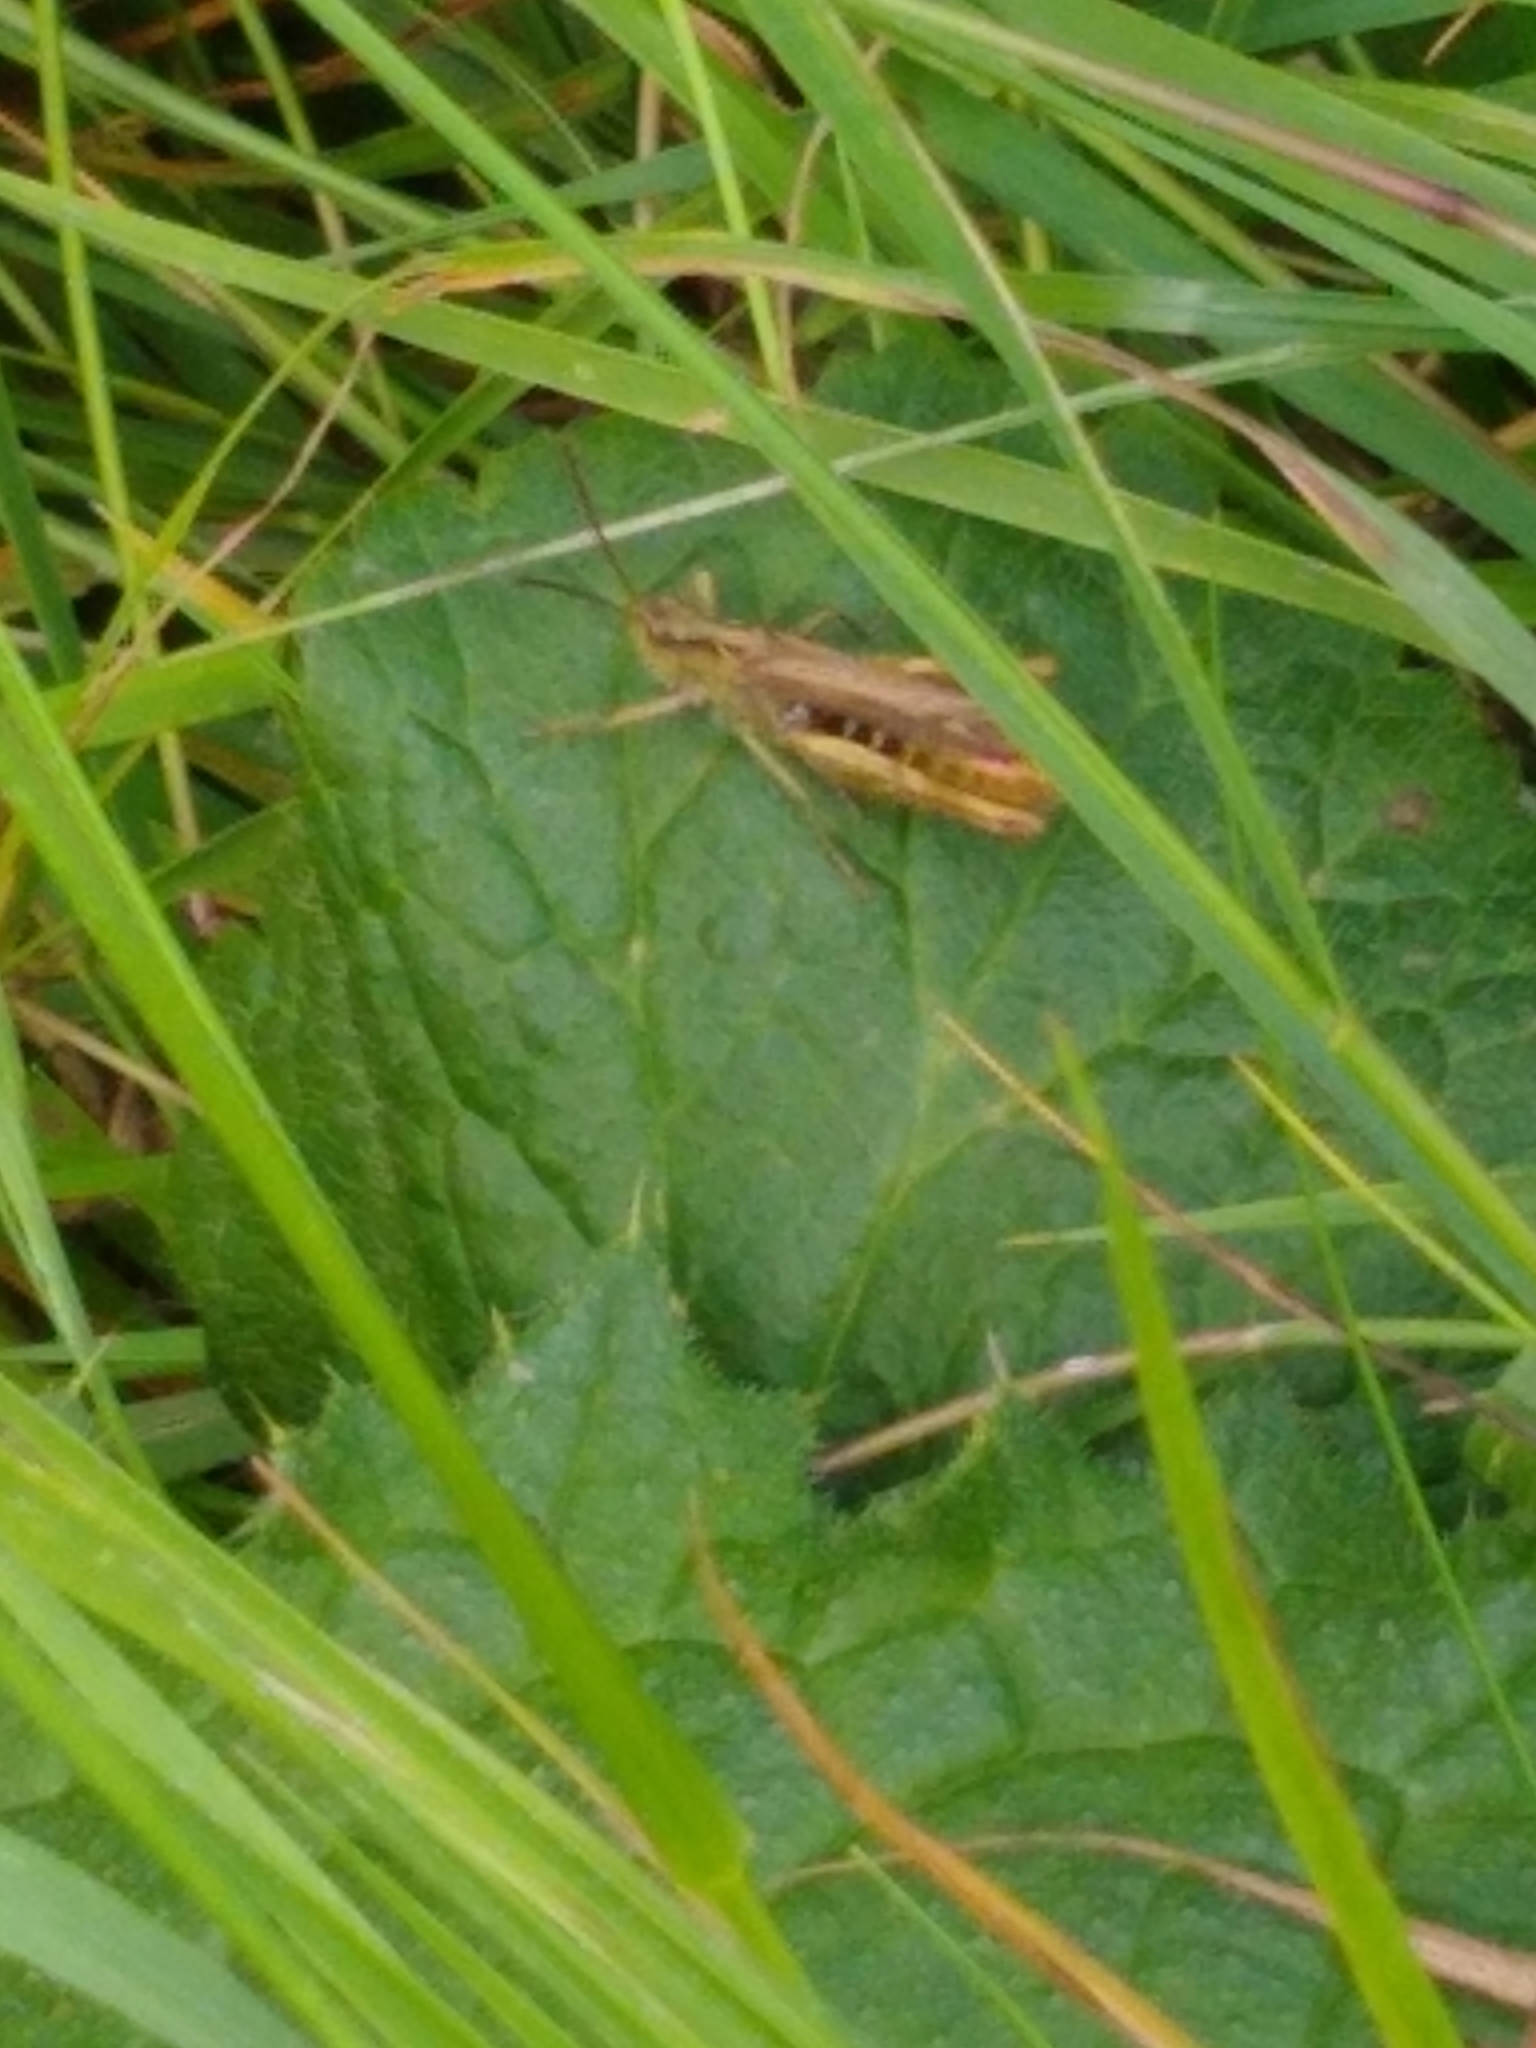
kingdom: Animalia
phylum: Arthropoda
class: Insecta
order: Orthoptera
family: Acrididae
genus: Chorthippus
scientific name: Chorthippus brunneus
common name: Field grasshopper
